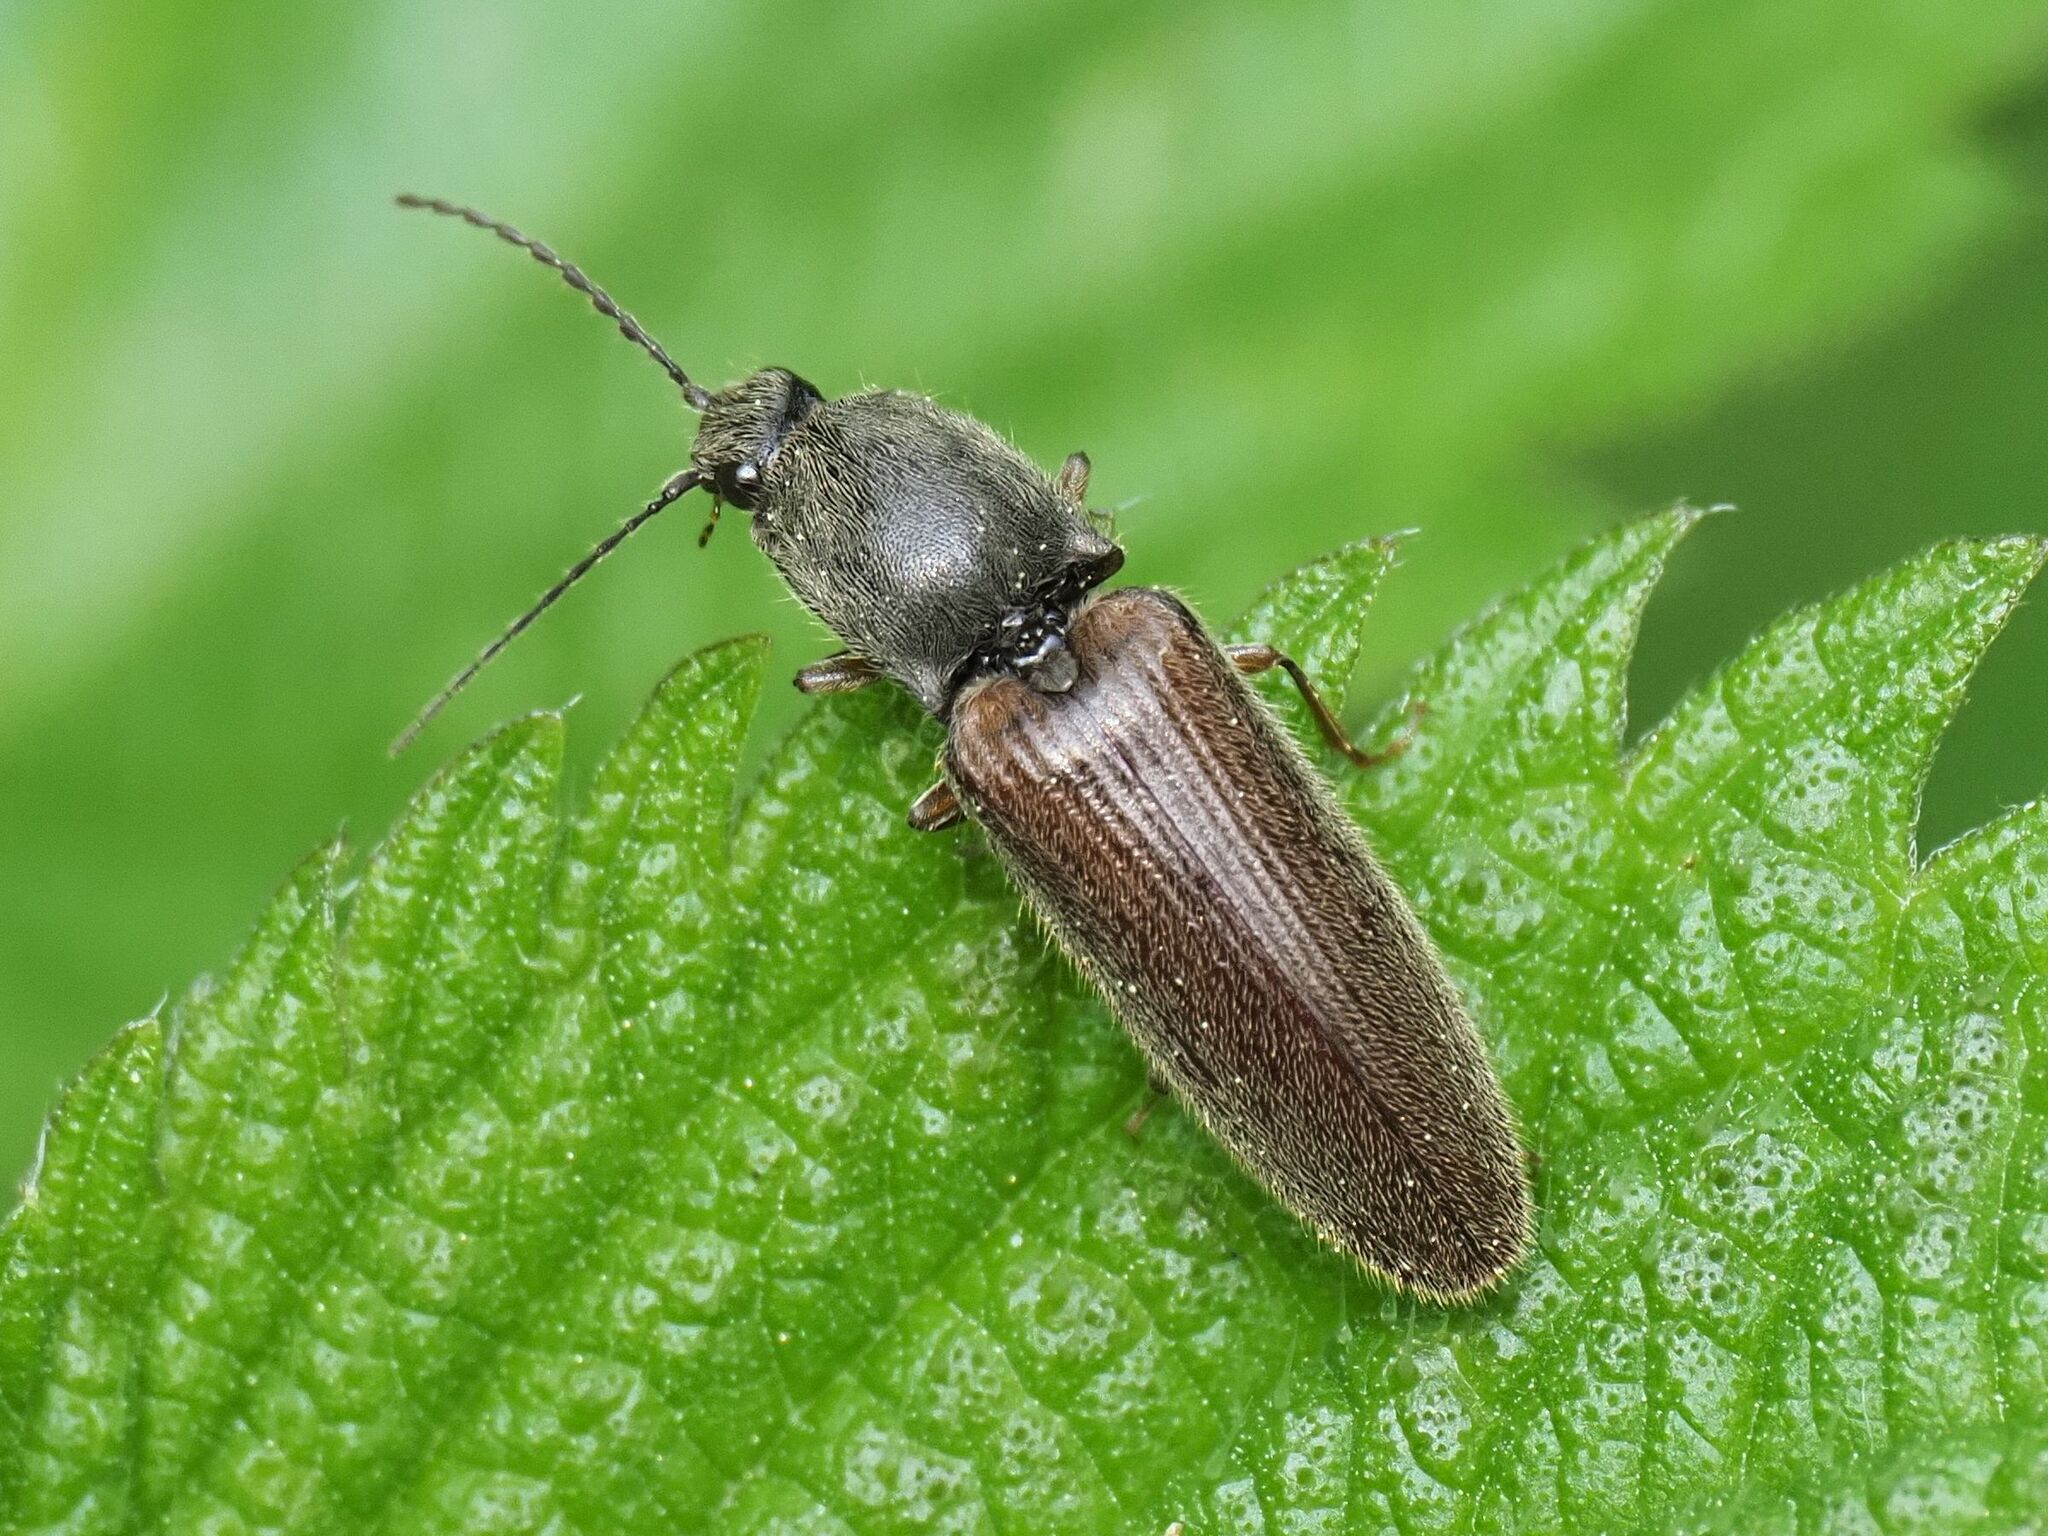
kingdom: Animalia
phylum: Arthropoda
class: Insecta
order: Coleoptera
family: Elateridae
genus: Athous
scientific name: Athous haemorrhoidalis
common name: Red-brown click beetle
